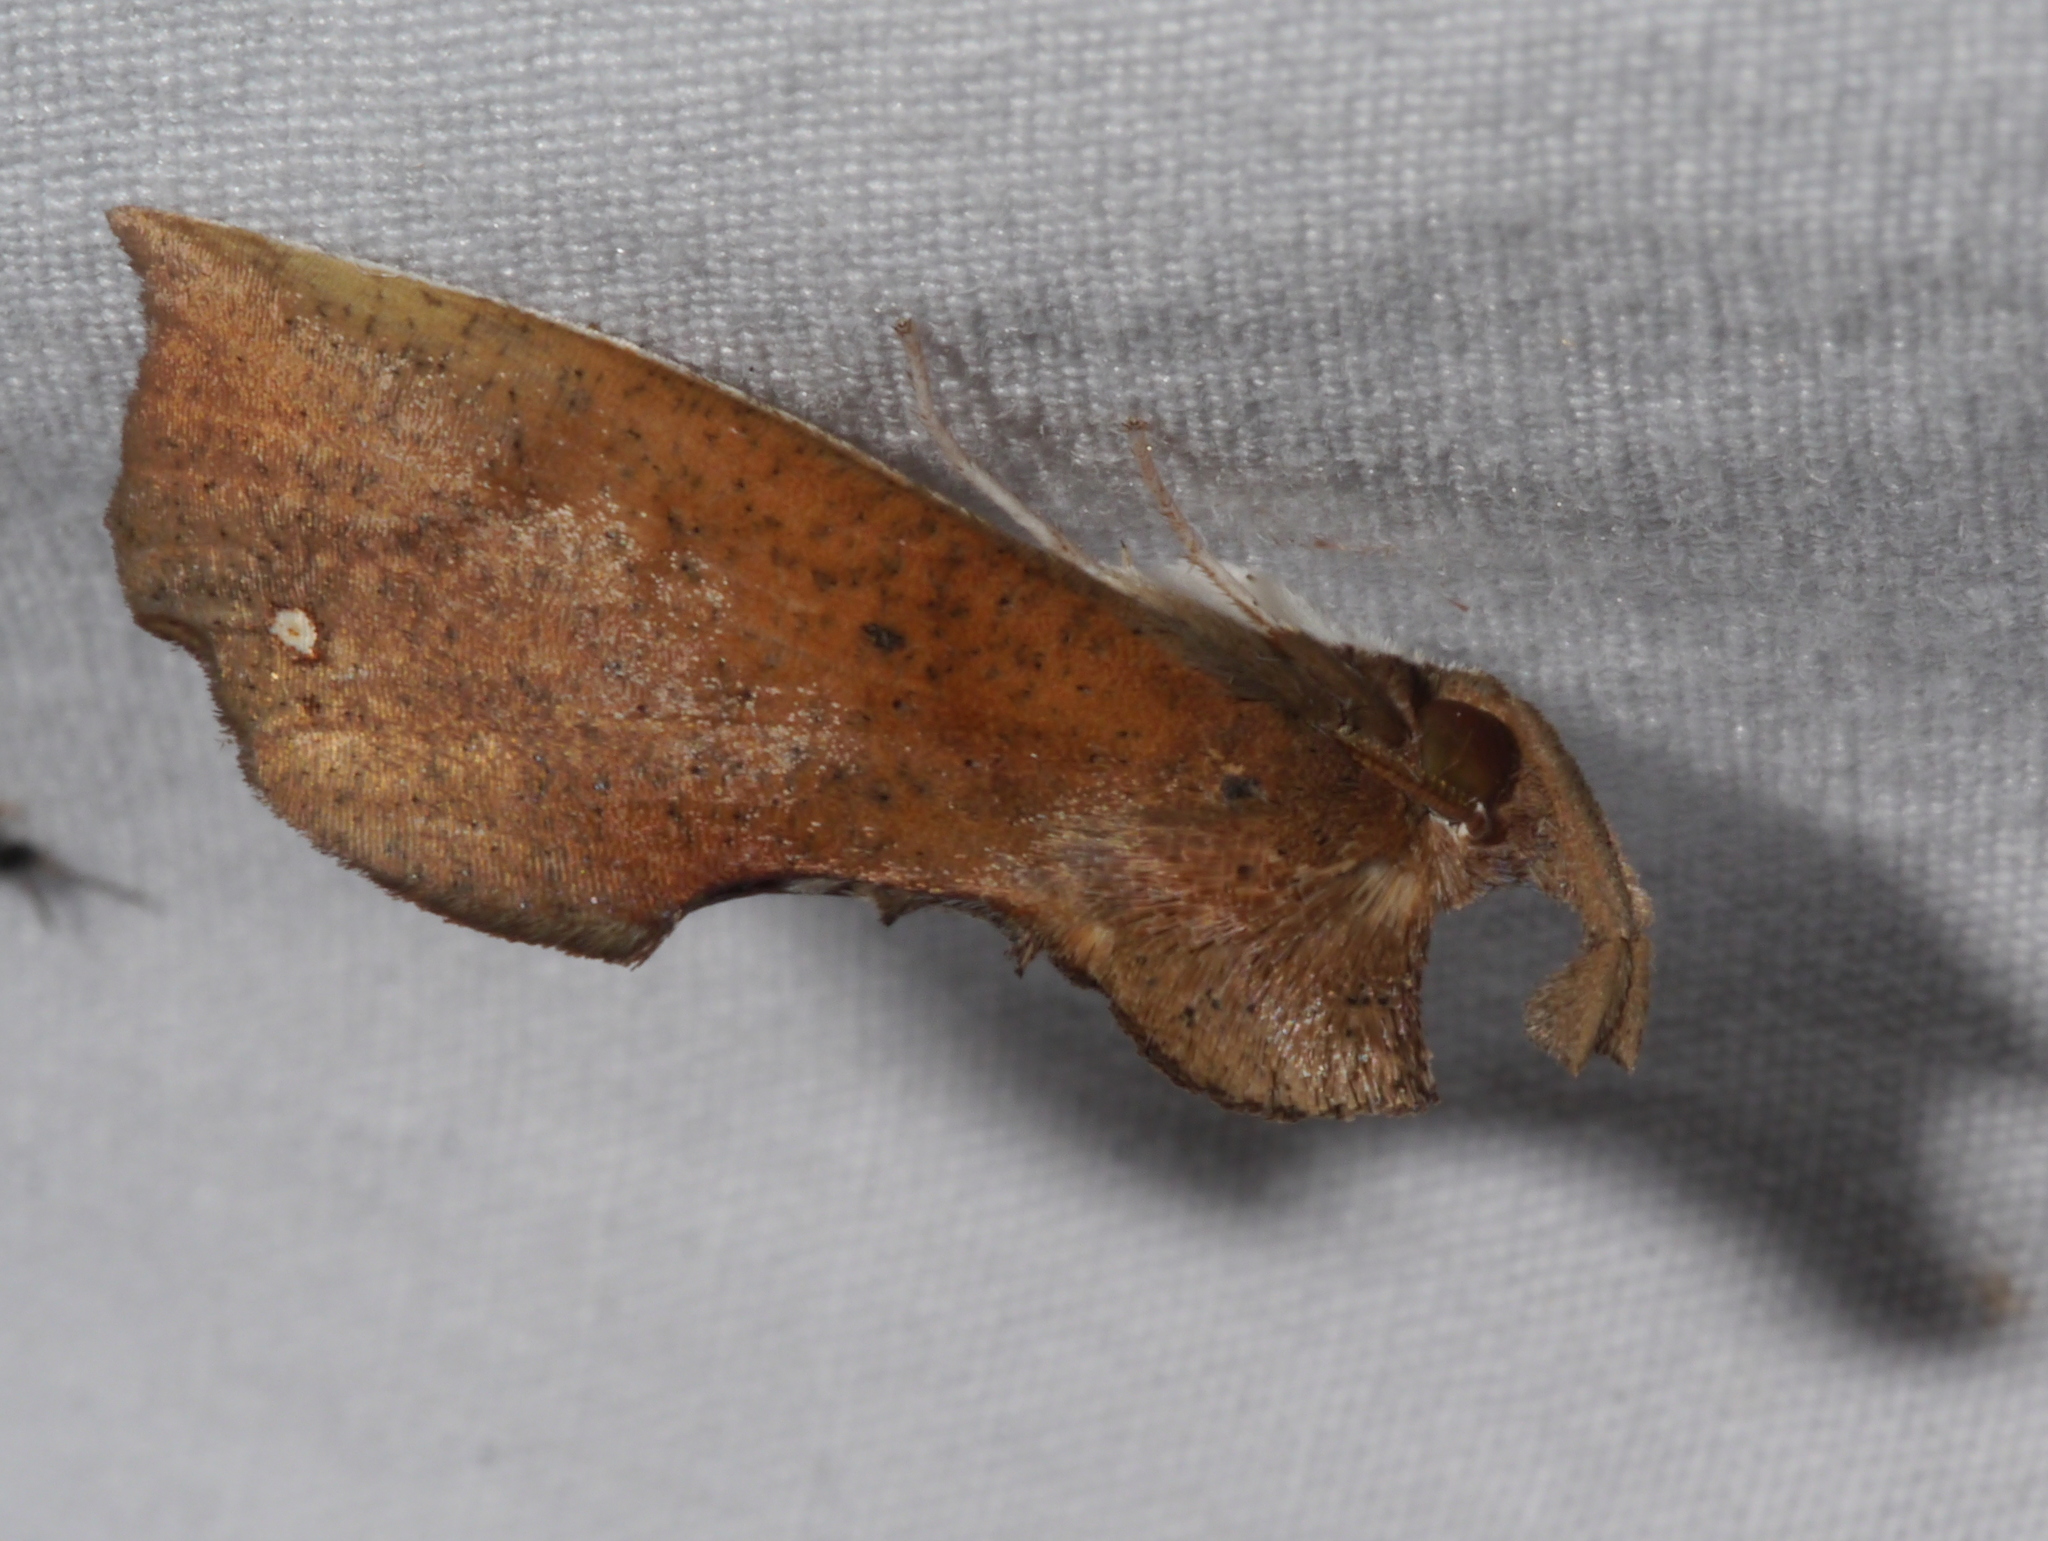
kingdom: Animalia
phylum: Arthropoda
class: Insecta
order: Lepidoptera
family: Erebidae
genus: Goniapteryx
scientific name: Goniapteryx servia
